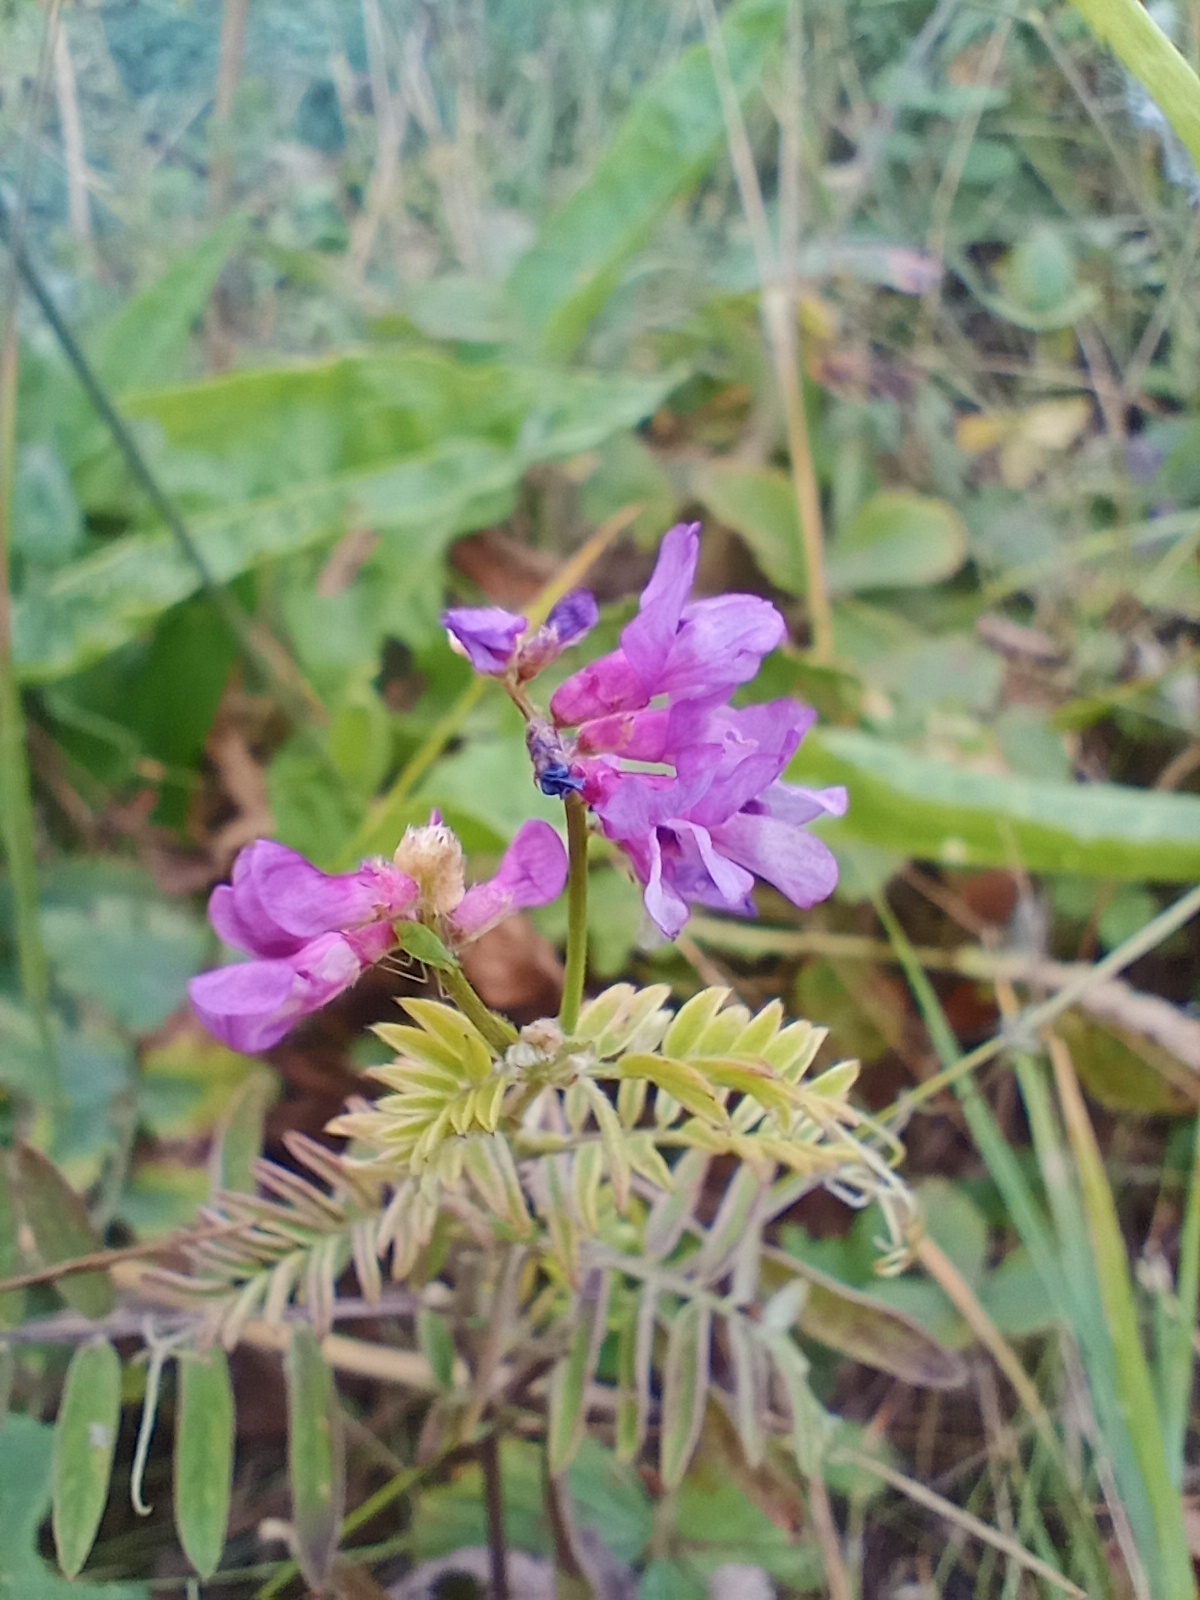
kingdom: Plantae
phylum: Tracheophyta
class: Magnoliopsida
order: Fabales
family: Fabaceae
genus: Vicia
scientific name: Vicia cracca
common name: Bird vetch
